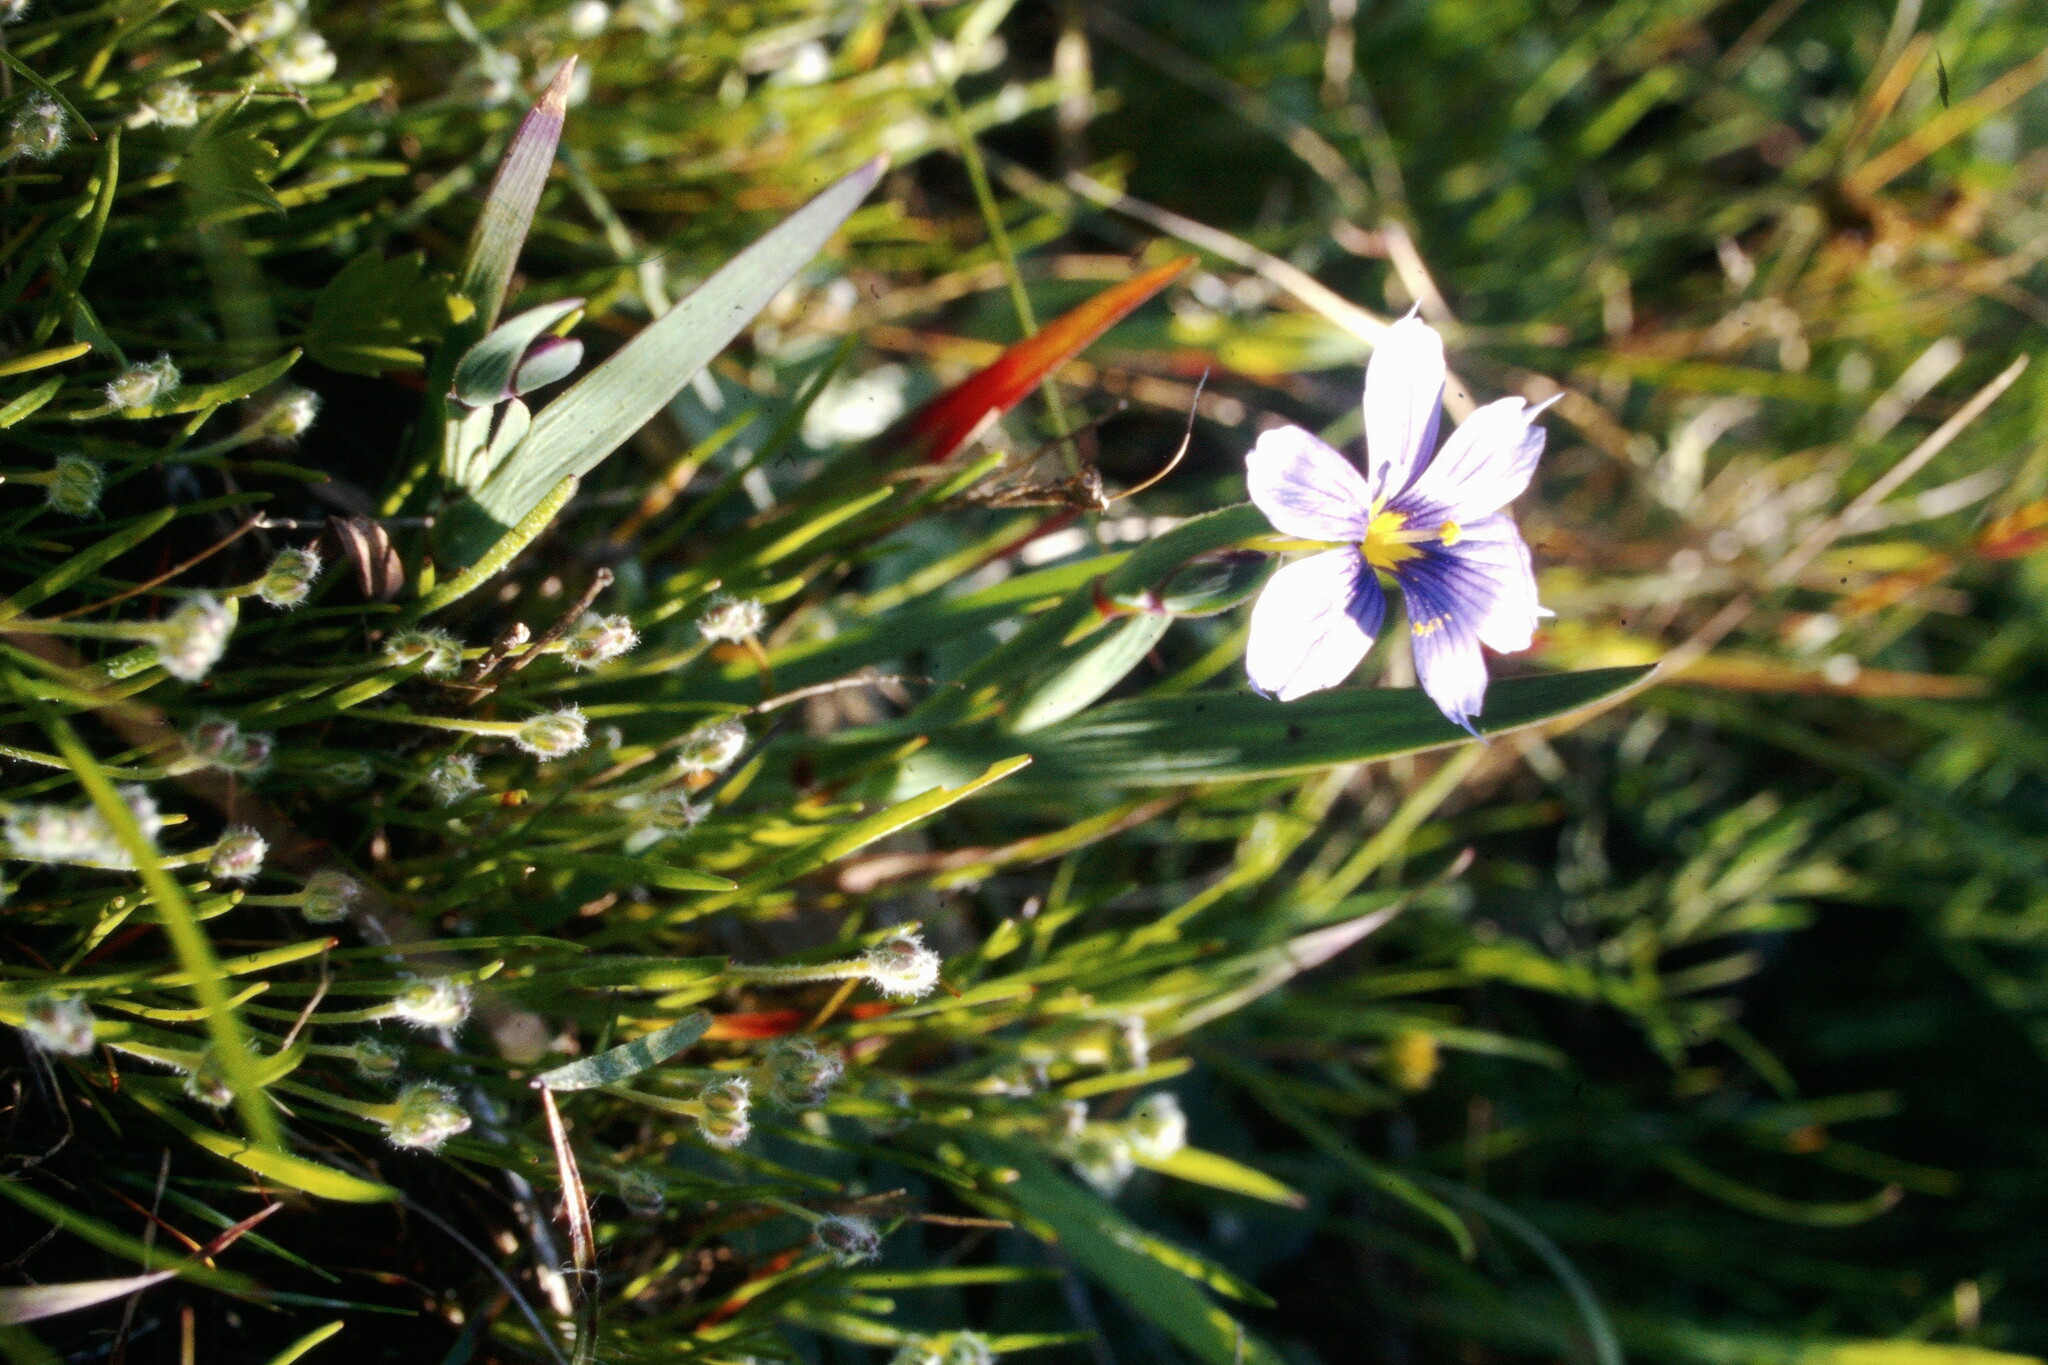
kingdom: Plantae
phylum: Tracheophyta
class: Liliopsida
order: Asparagales
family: Iridaceae
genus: Sisyrinchium
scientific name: Sisyrinchium bellum
